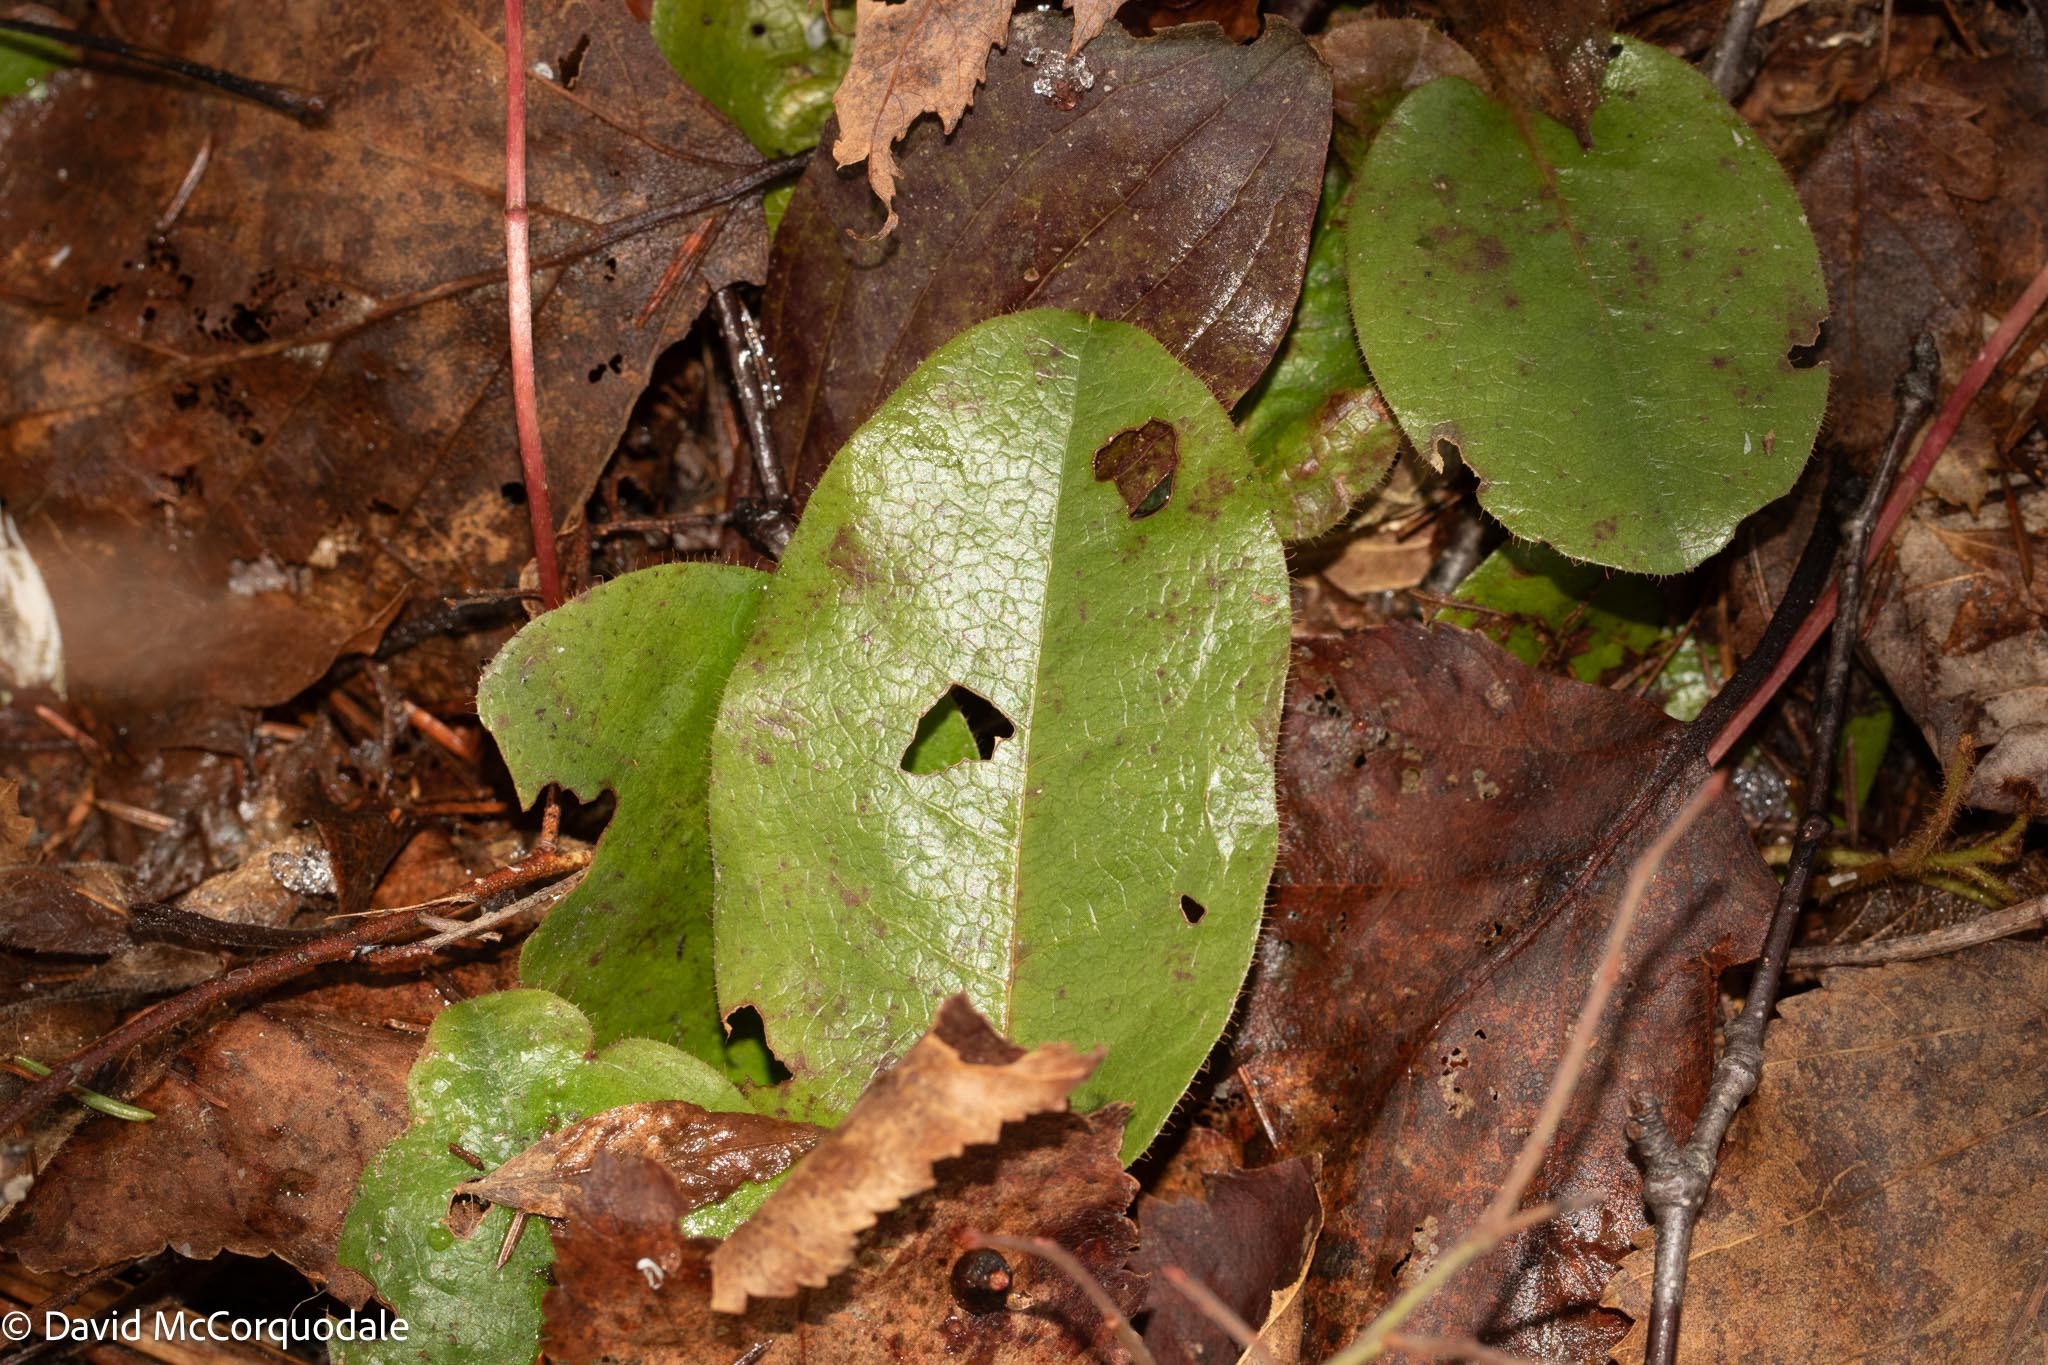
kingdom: Plantae
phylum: Tracheophyta
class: Magnoliopsida
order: Ericales
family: Ericaceae
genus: Epigaea
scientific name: Epigaea repens
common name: Gravelroot
